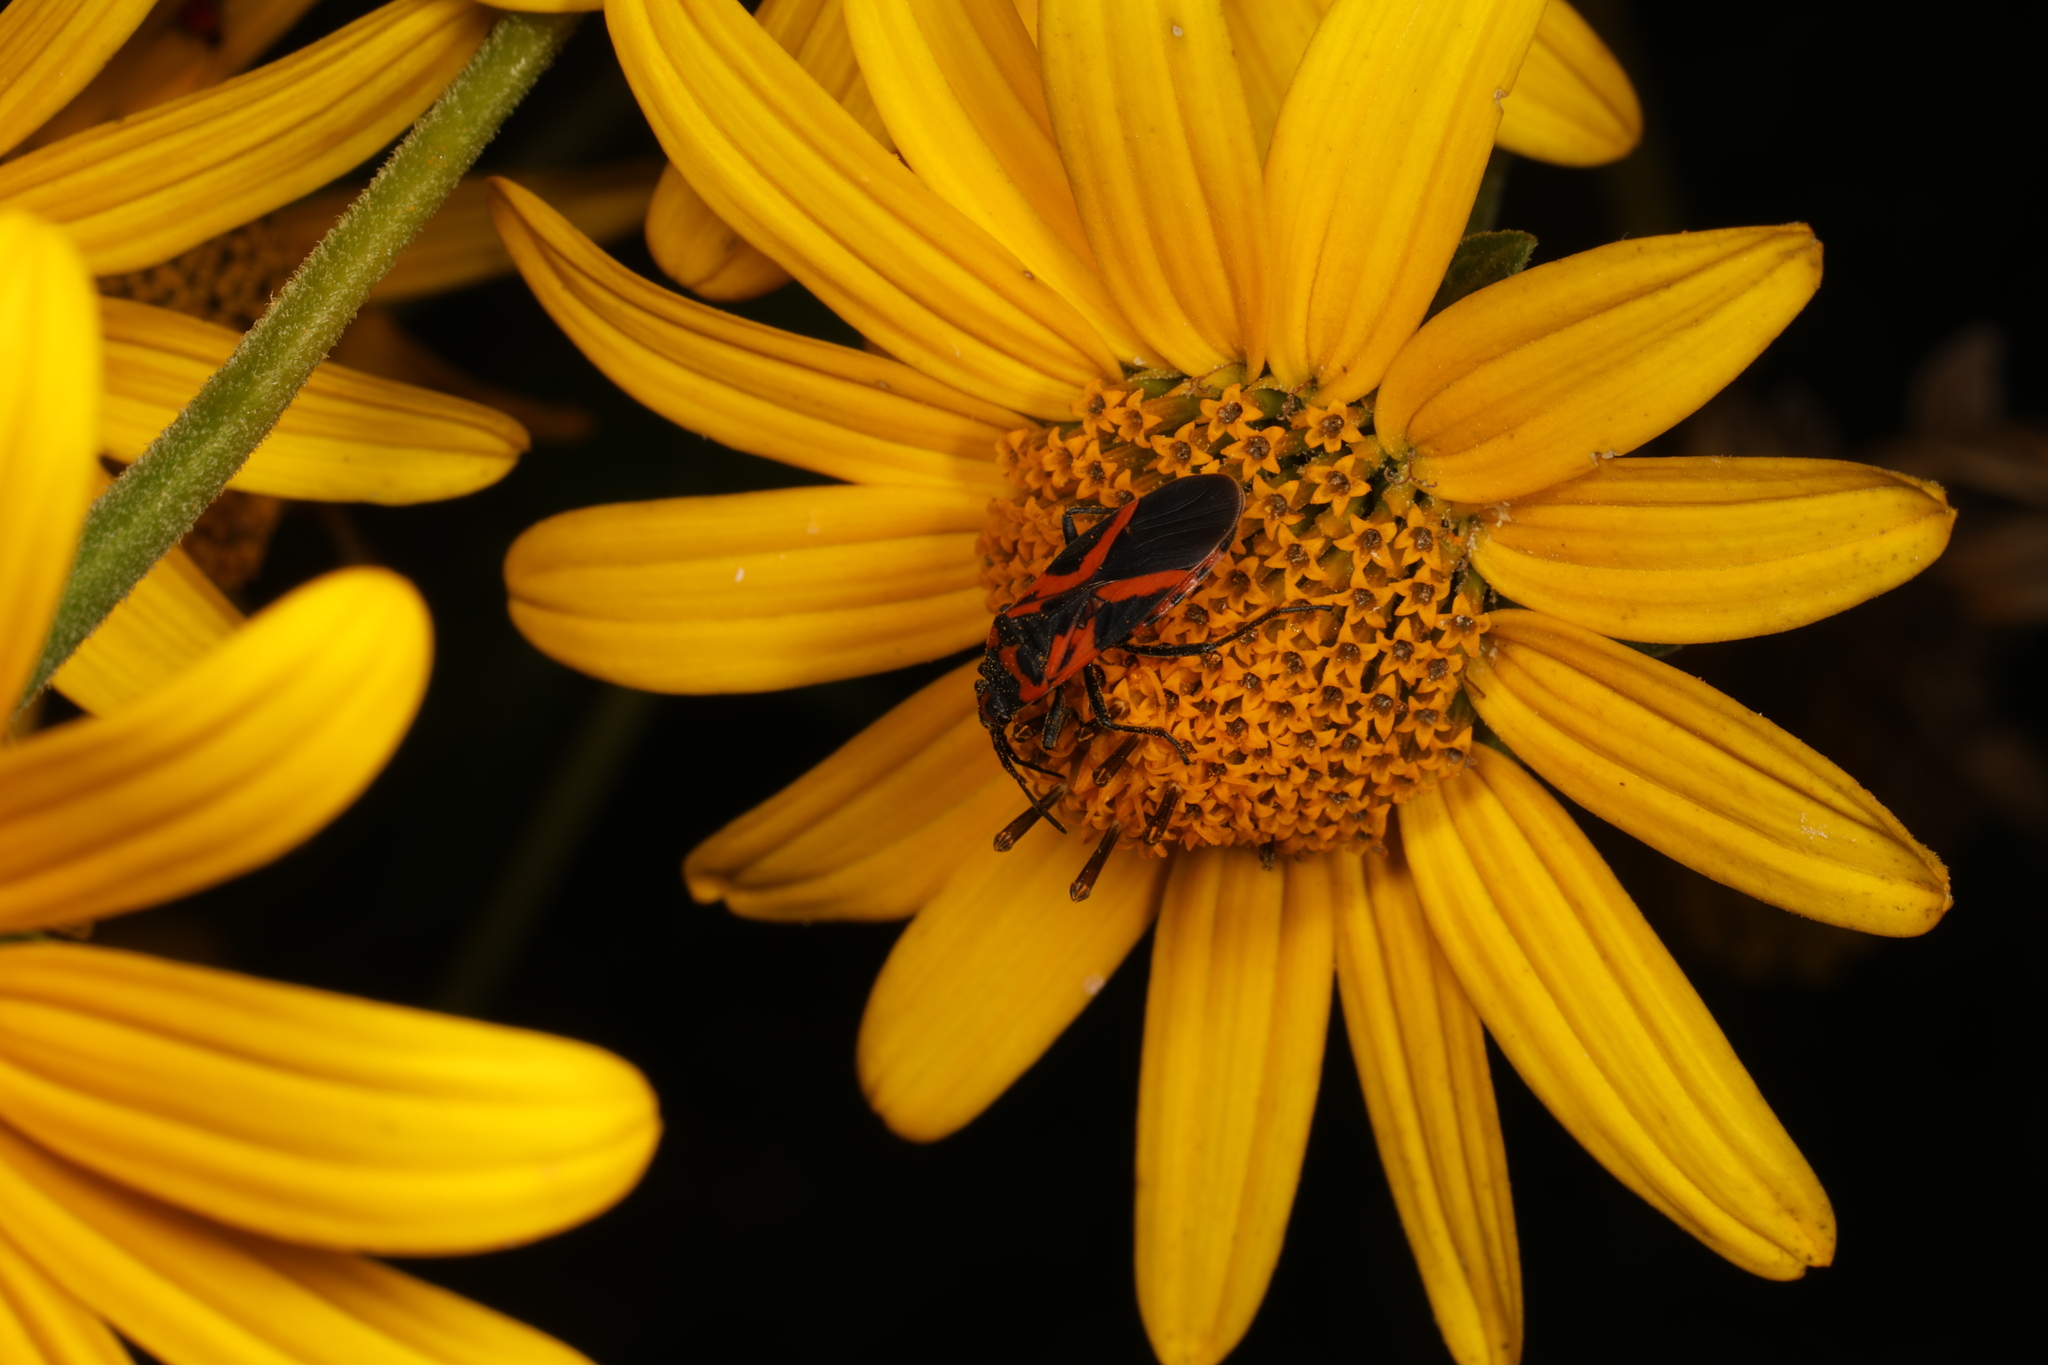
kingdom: Animalia
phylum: Arthropoda
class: Insecta
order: Hemiptera
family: Lygaeidae
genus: Lygaeus
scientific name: Lygaeus turcicus
